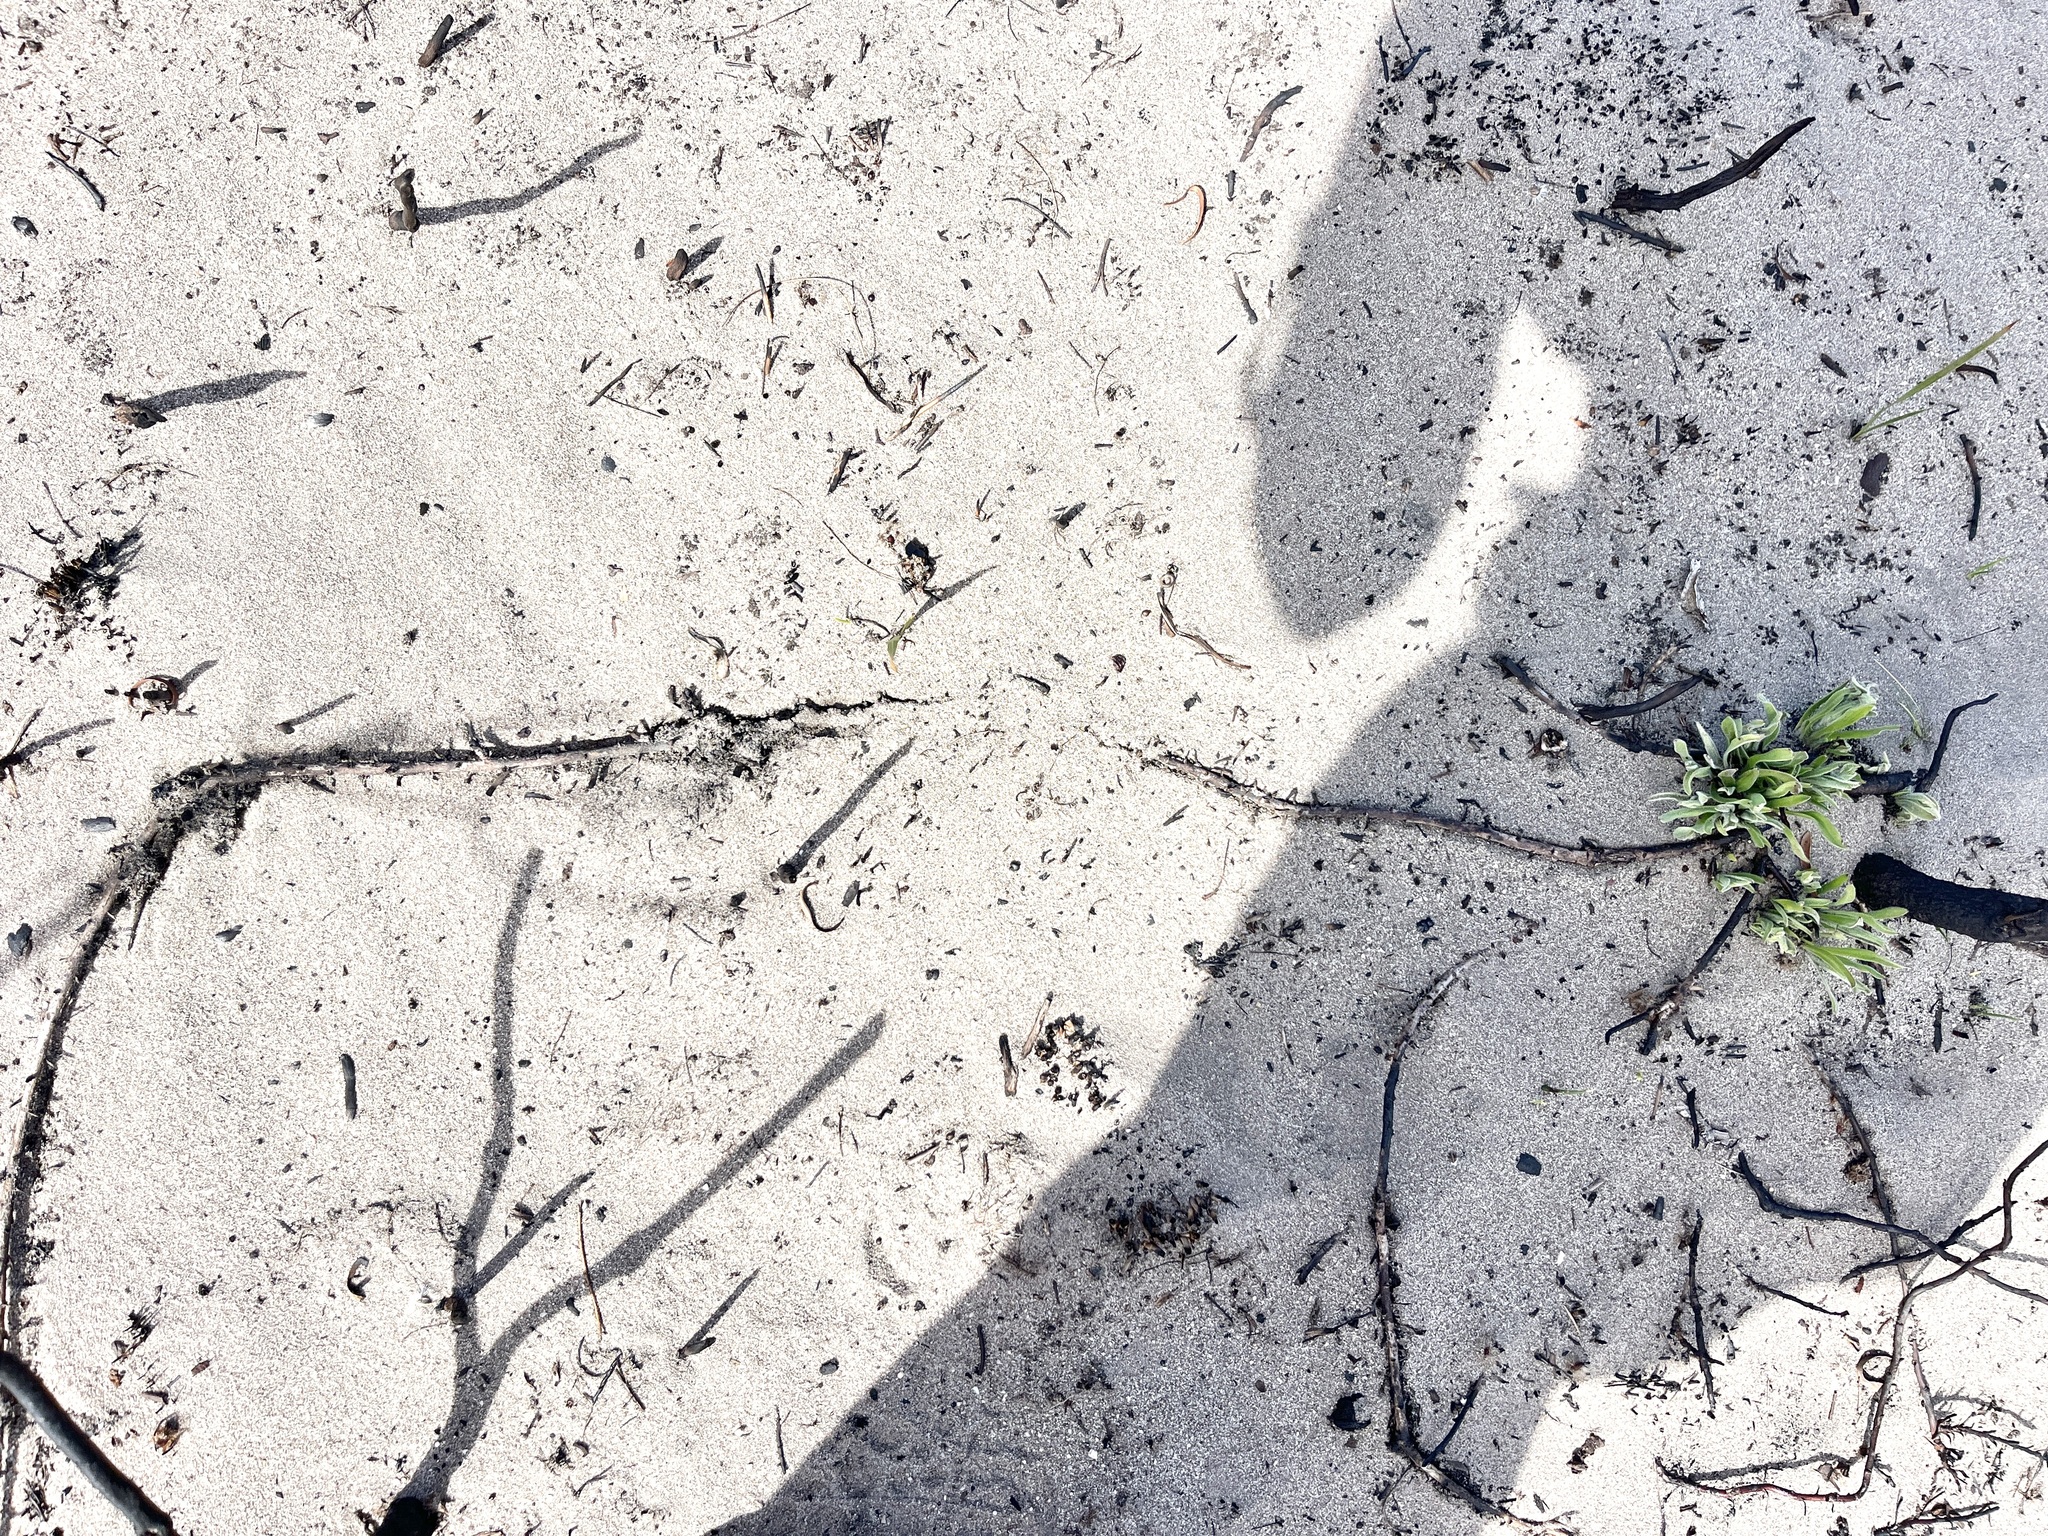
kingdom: Plantae
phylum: Tracheophyta
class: Magnoliopsida
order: Proteales
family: Proteaceae
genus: Leucospermum
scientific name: Leucospermum hypophyllocarpodendron
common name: Snakestem pincushion
